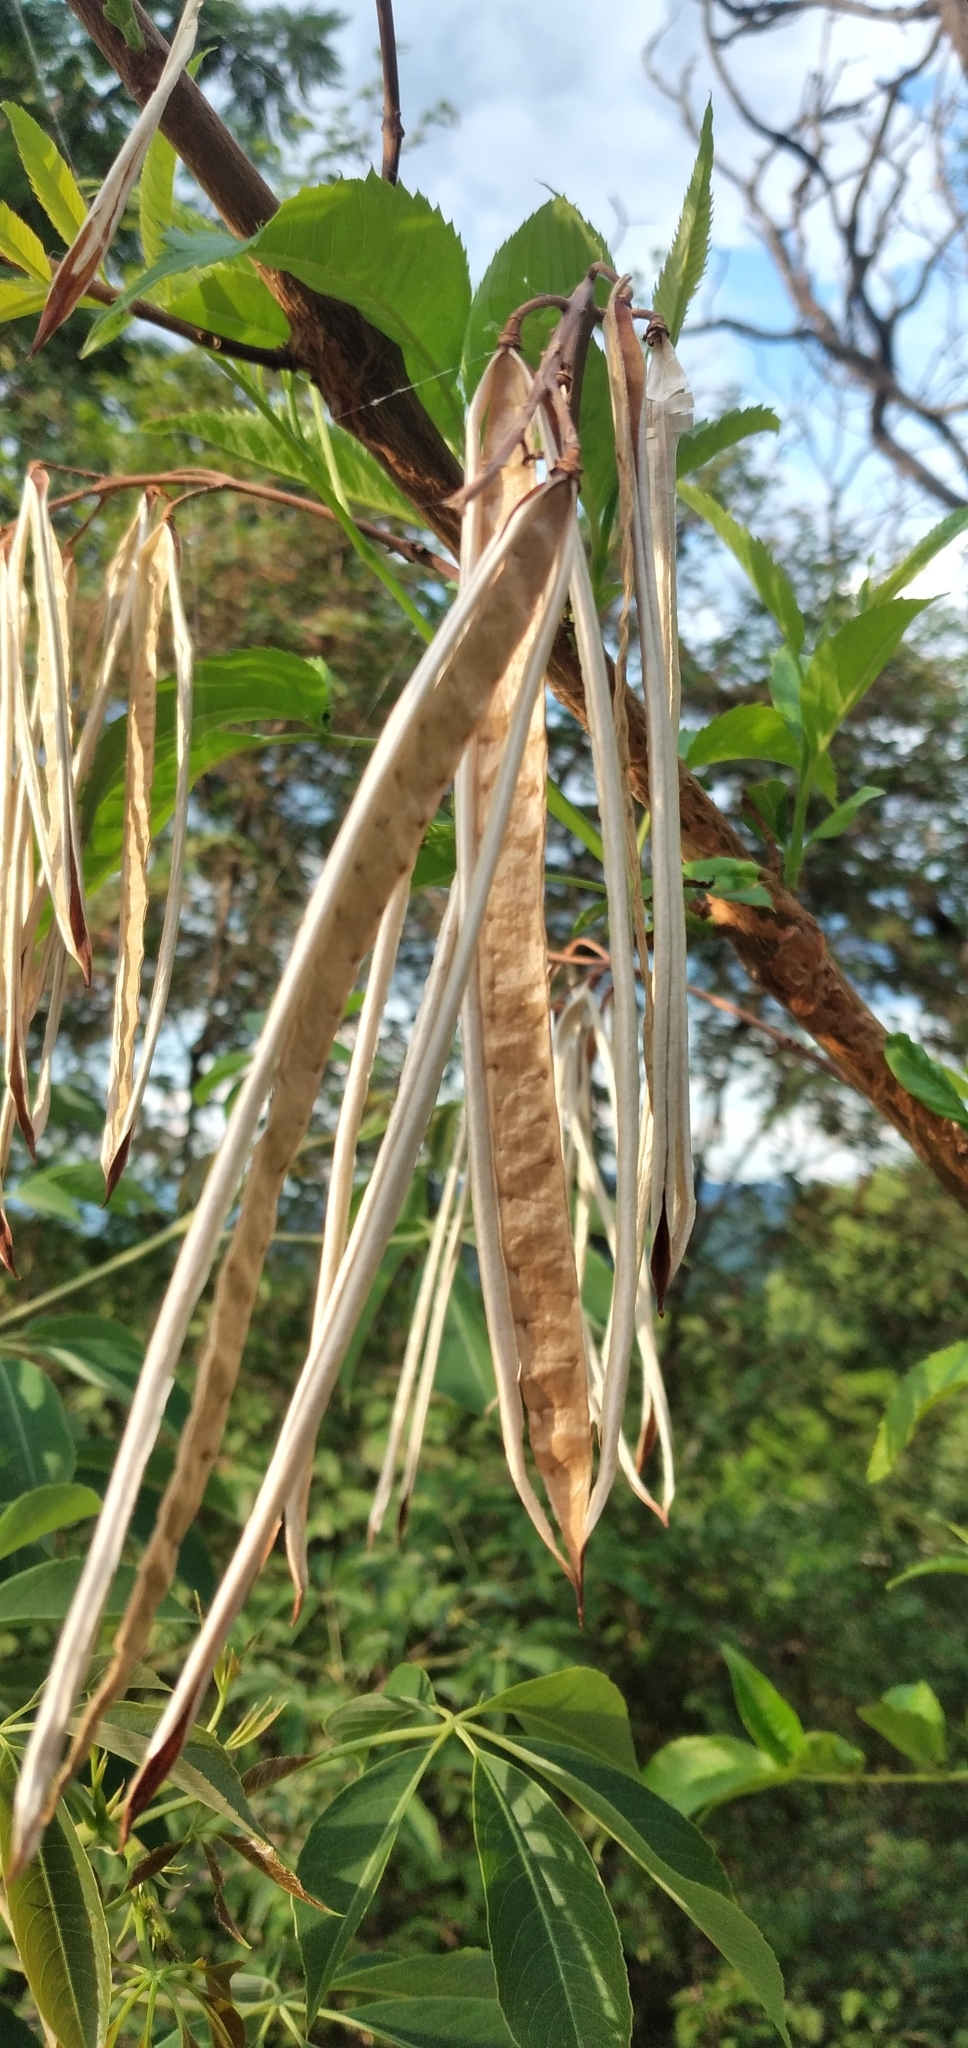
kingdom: Plantae
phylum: Tracheophyta
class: Magnoliopsida
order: Lamiales
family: Bignoniaceae
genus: Tecoma
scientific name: Tecoma stans
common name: Yellow trumpetbush
